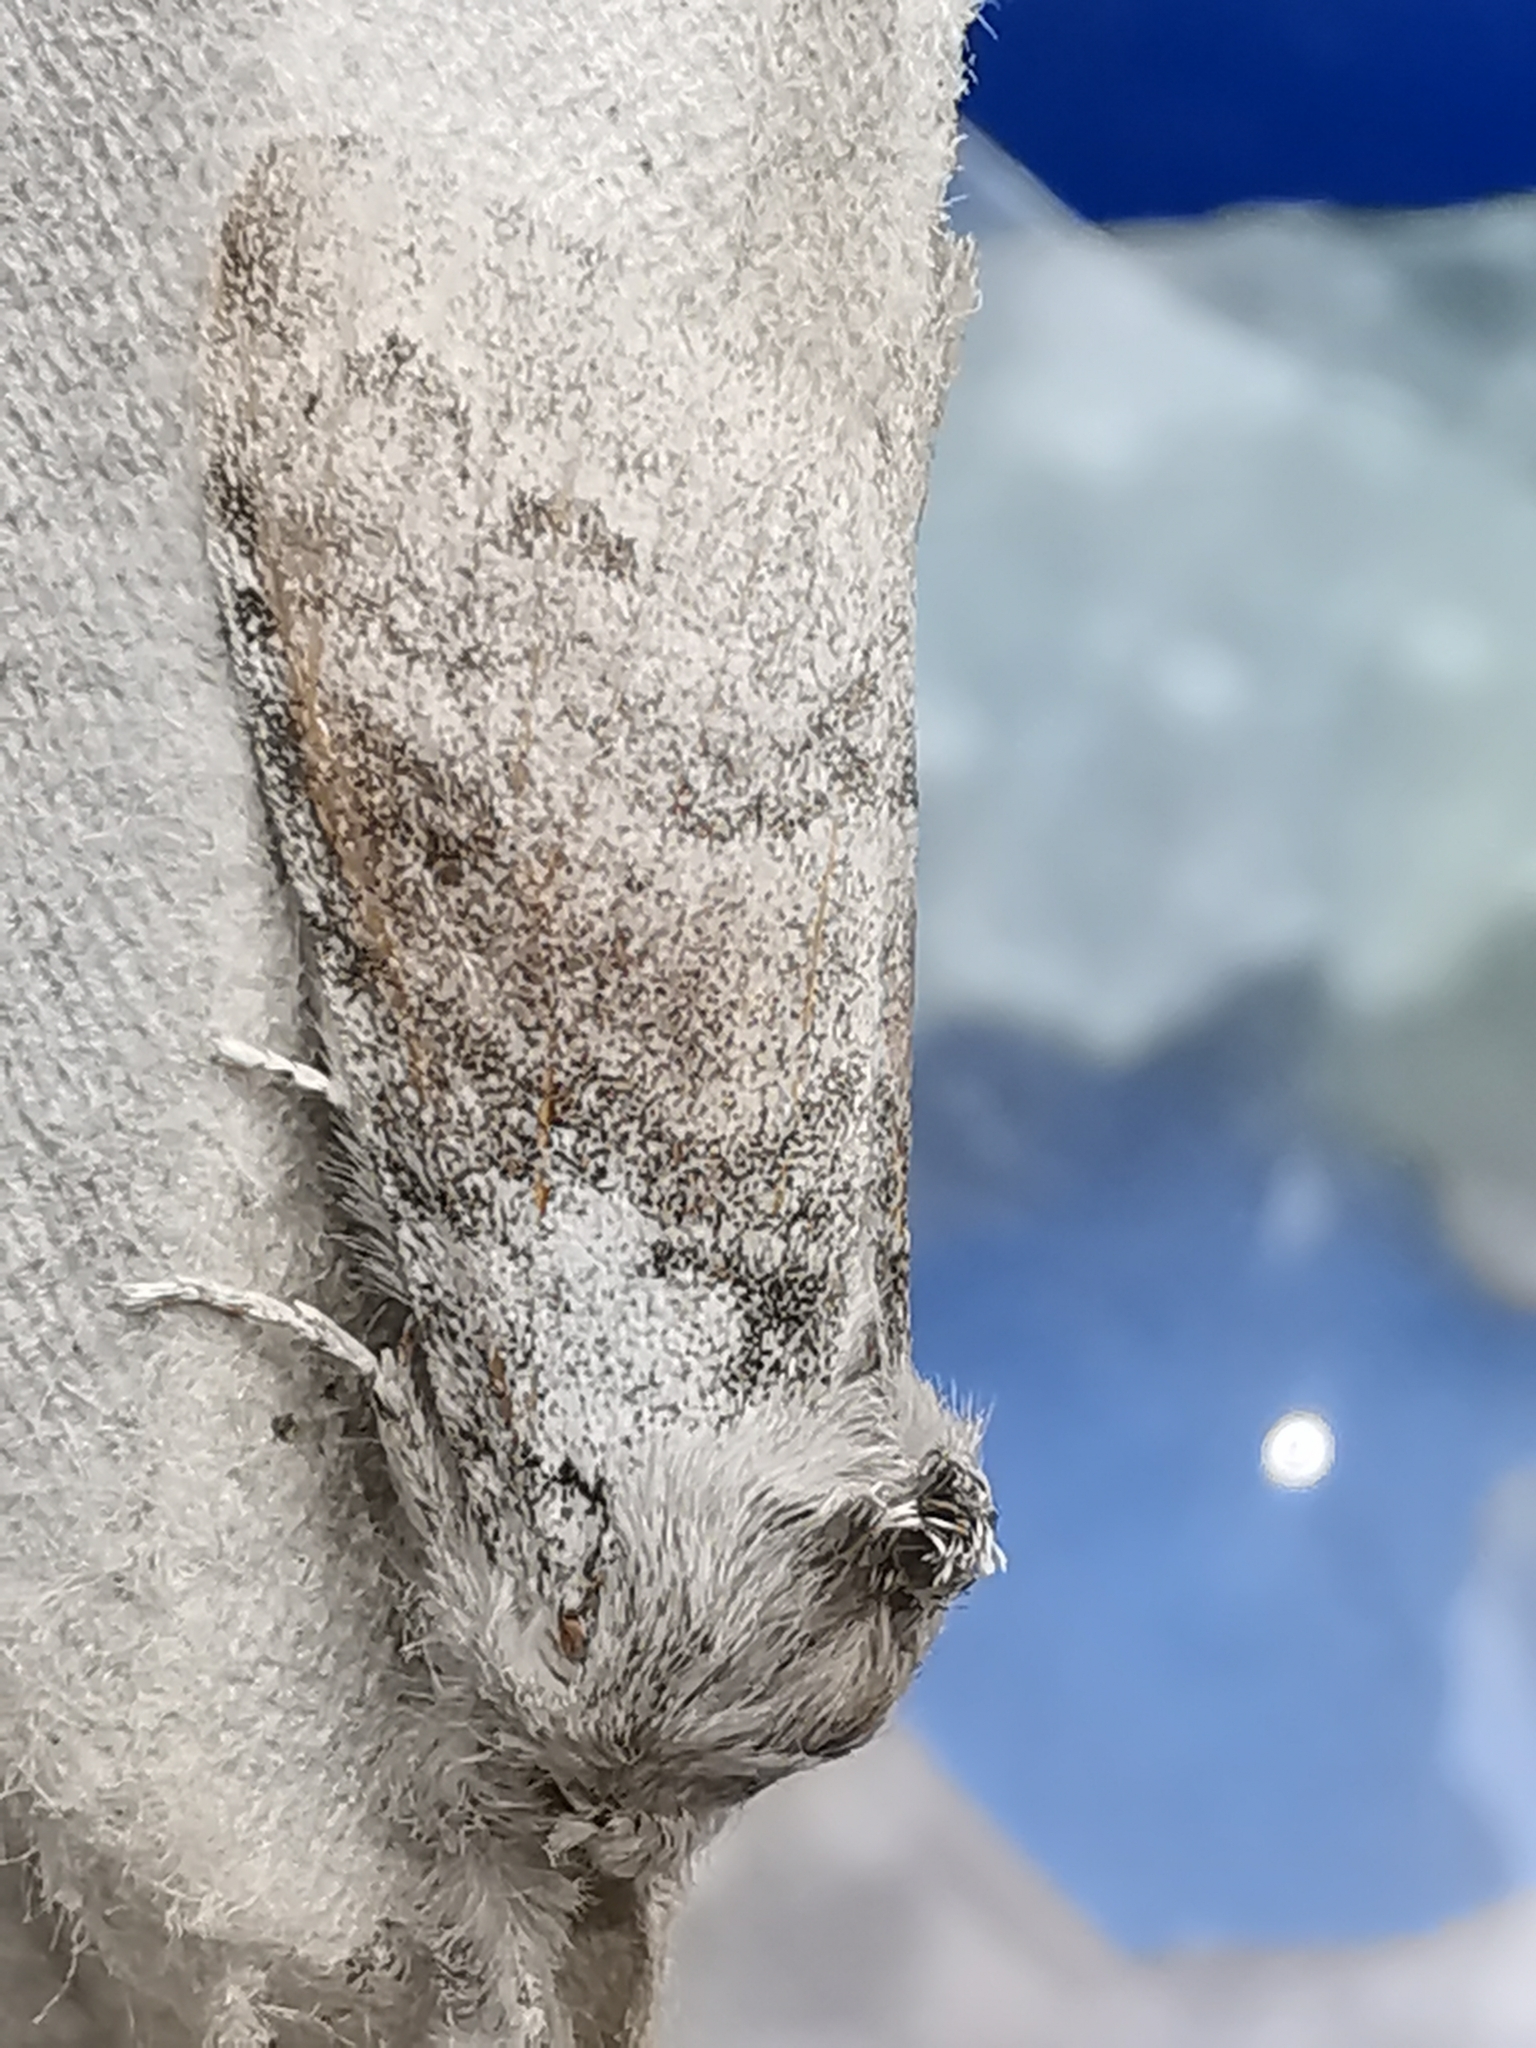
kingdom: Animalia
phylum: Arthropoda
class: Insecta
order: Lepidoptera
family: Erebidae
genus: Calliteara
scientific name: Calliteara pudibunda
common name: Pale tussock
